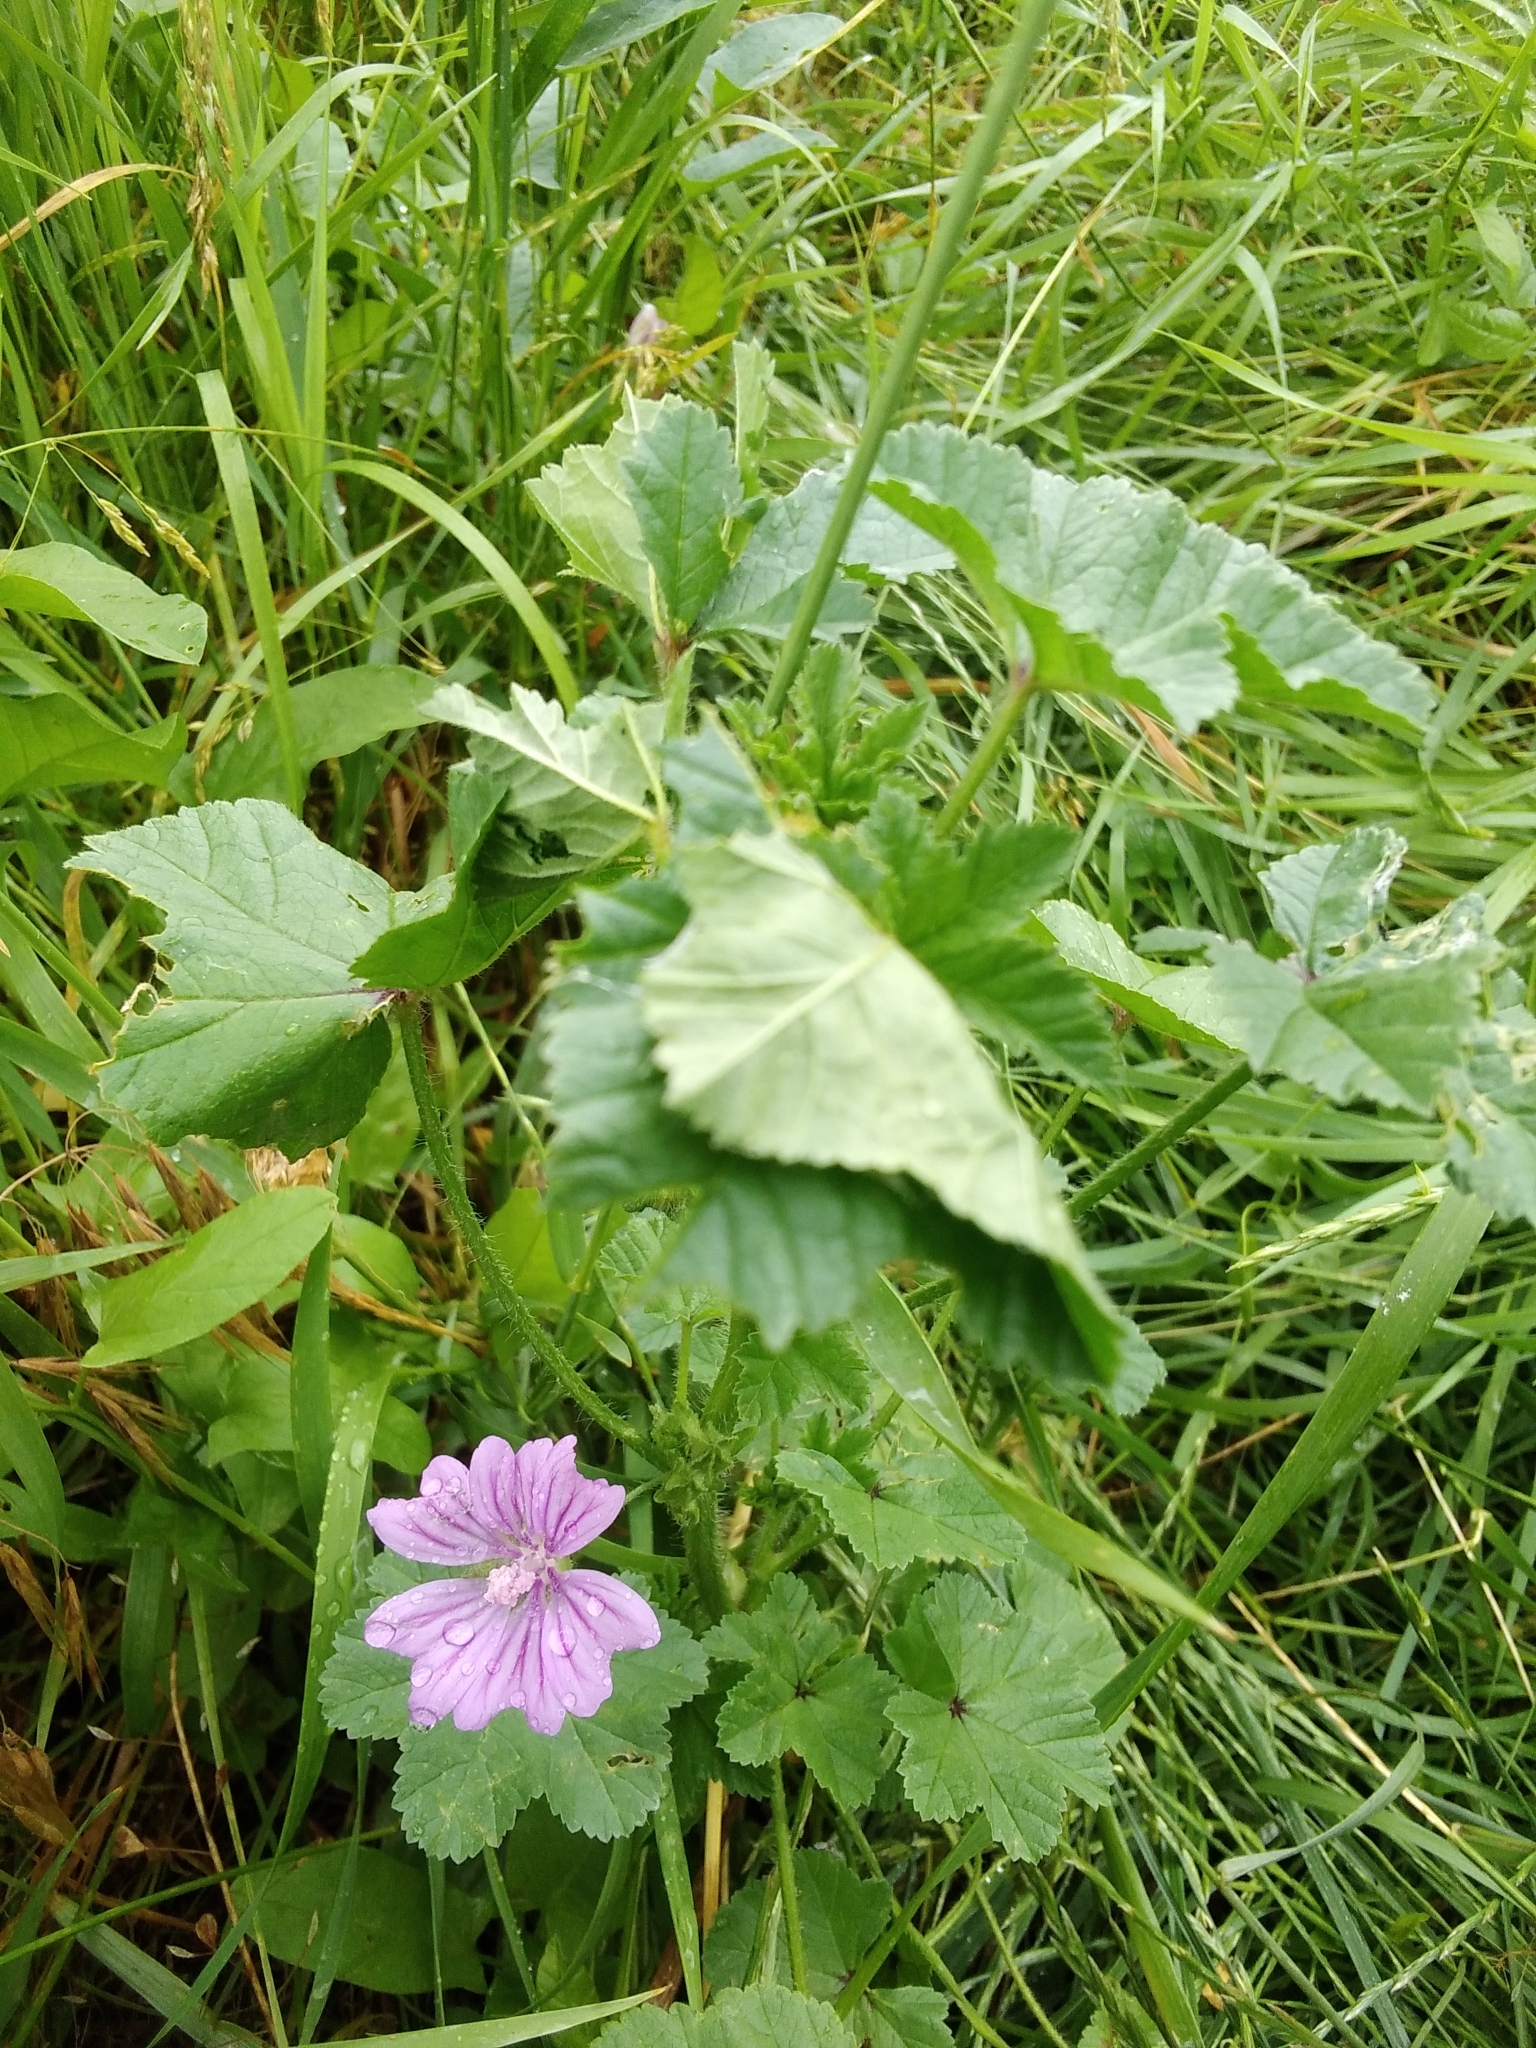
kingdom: Plantae
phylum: Tracheophyta
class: Magnoliopsida
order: Malvales
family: Malvaceae
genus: Malva
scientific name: Malva sylvestris
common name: Common mallow
